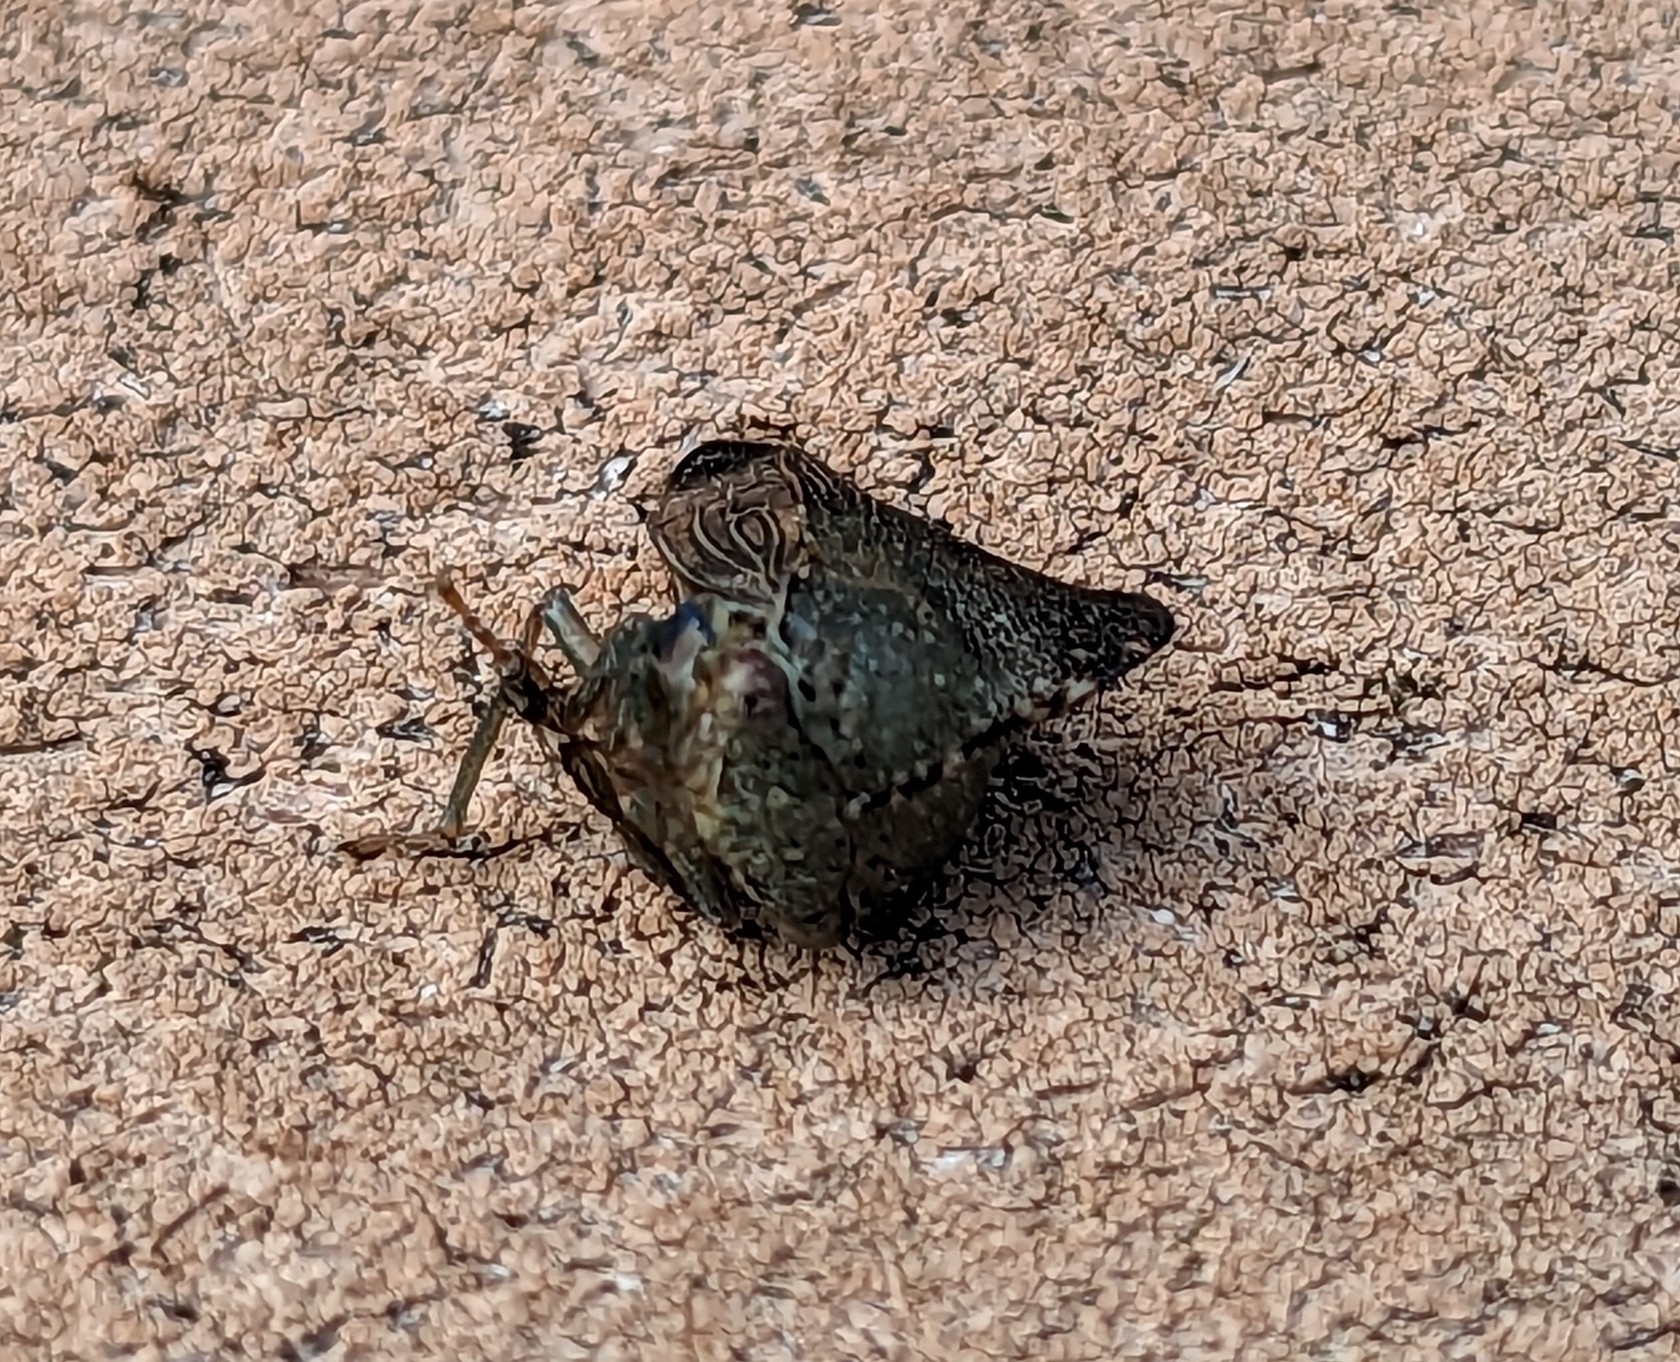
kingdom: Animalia
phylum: Arthropoda
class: Insecta
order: Hemiptera
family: Membracidae
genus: Telamona
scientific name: Telamona tarda
